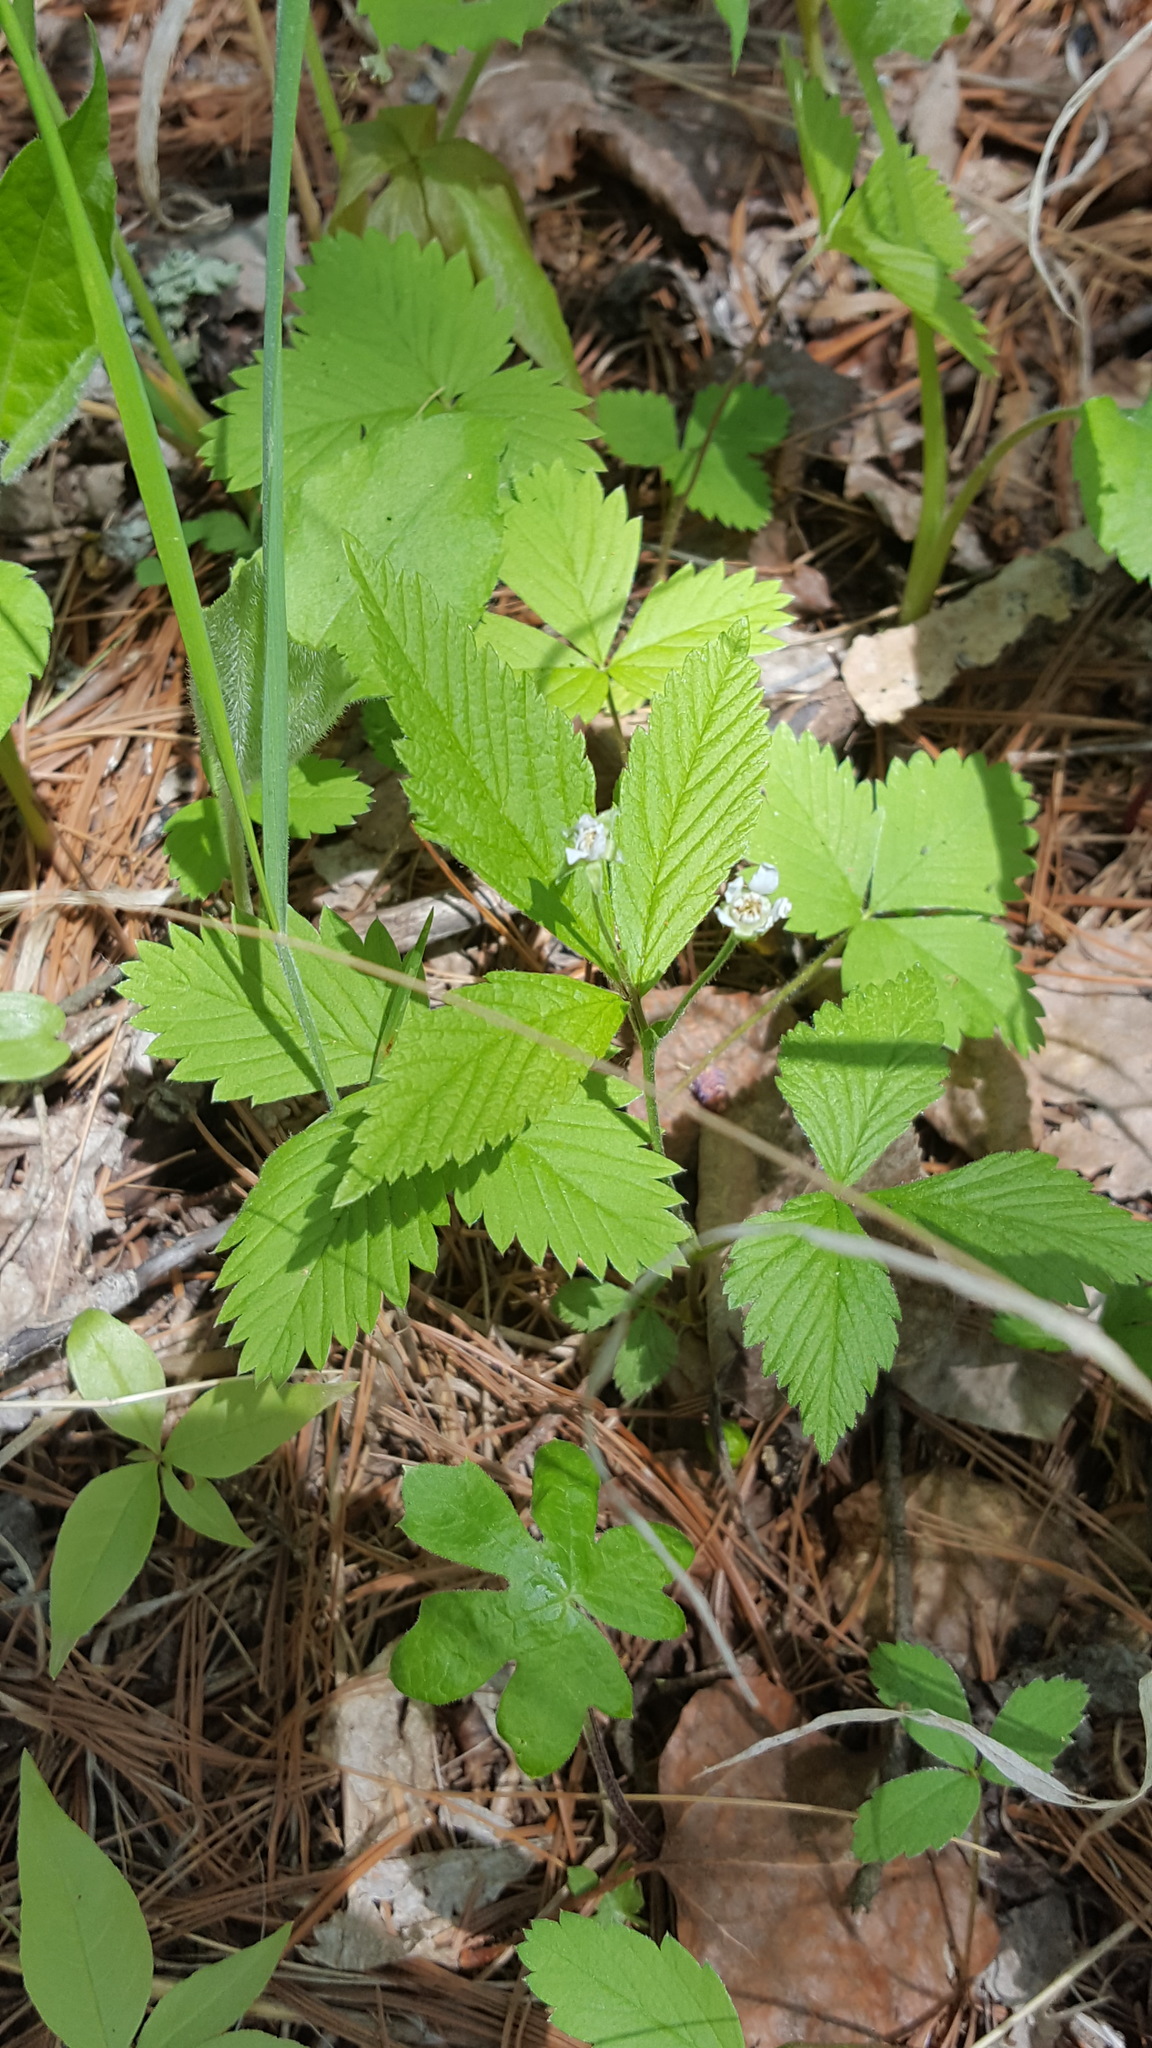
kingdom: Plantae
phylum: Tracheophyta
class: Magnoliopsida
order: Rosales
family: Rosaceae
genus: Rubus
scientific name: Rubus pubescens
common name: Dwarf raspberry
